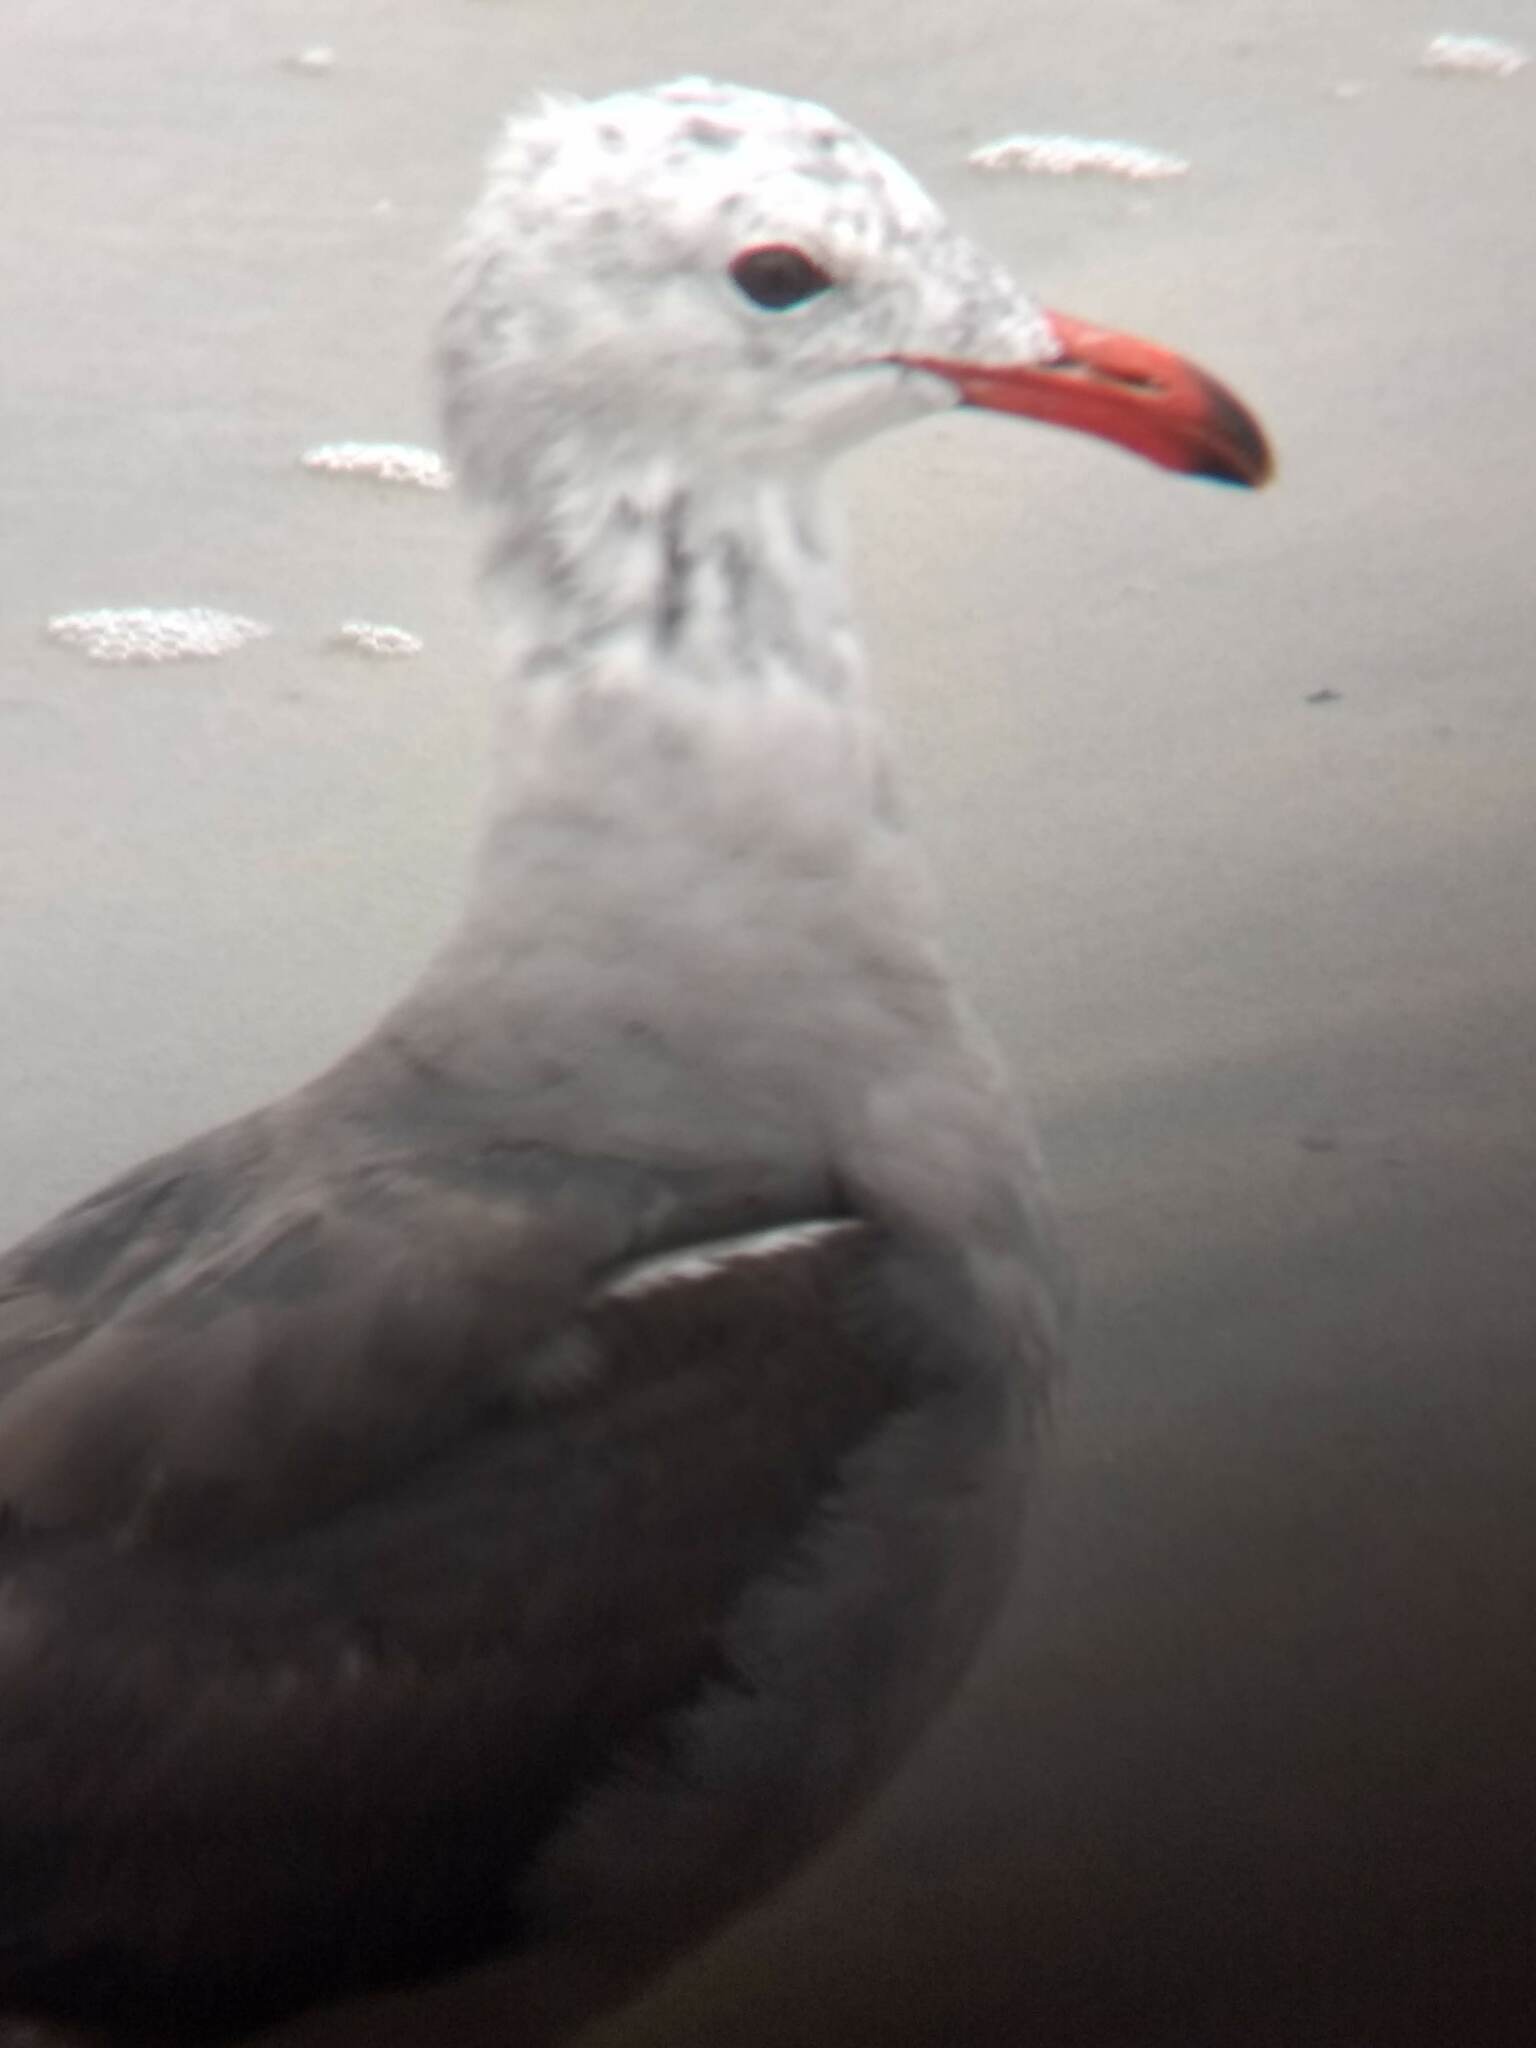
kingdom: Animalia
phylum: Chordata
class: Aves
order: Charadriiformes
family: Laridae
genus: Larus
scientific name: Larus heermanni
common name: Heermann's gull
